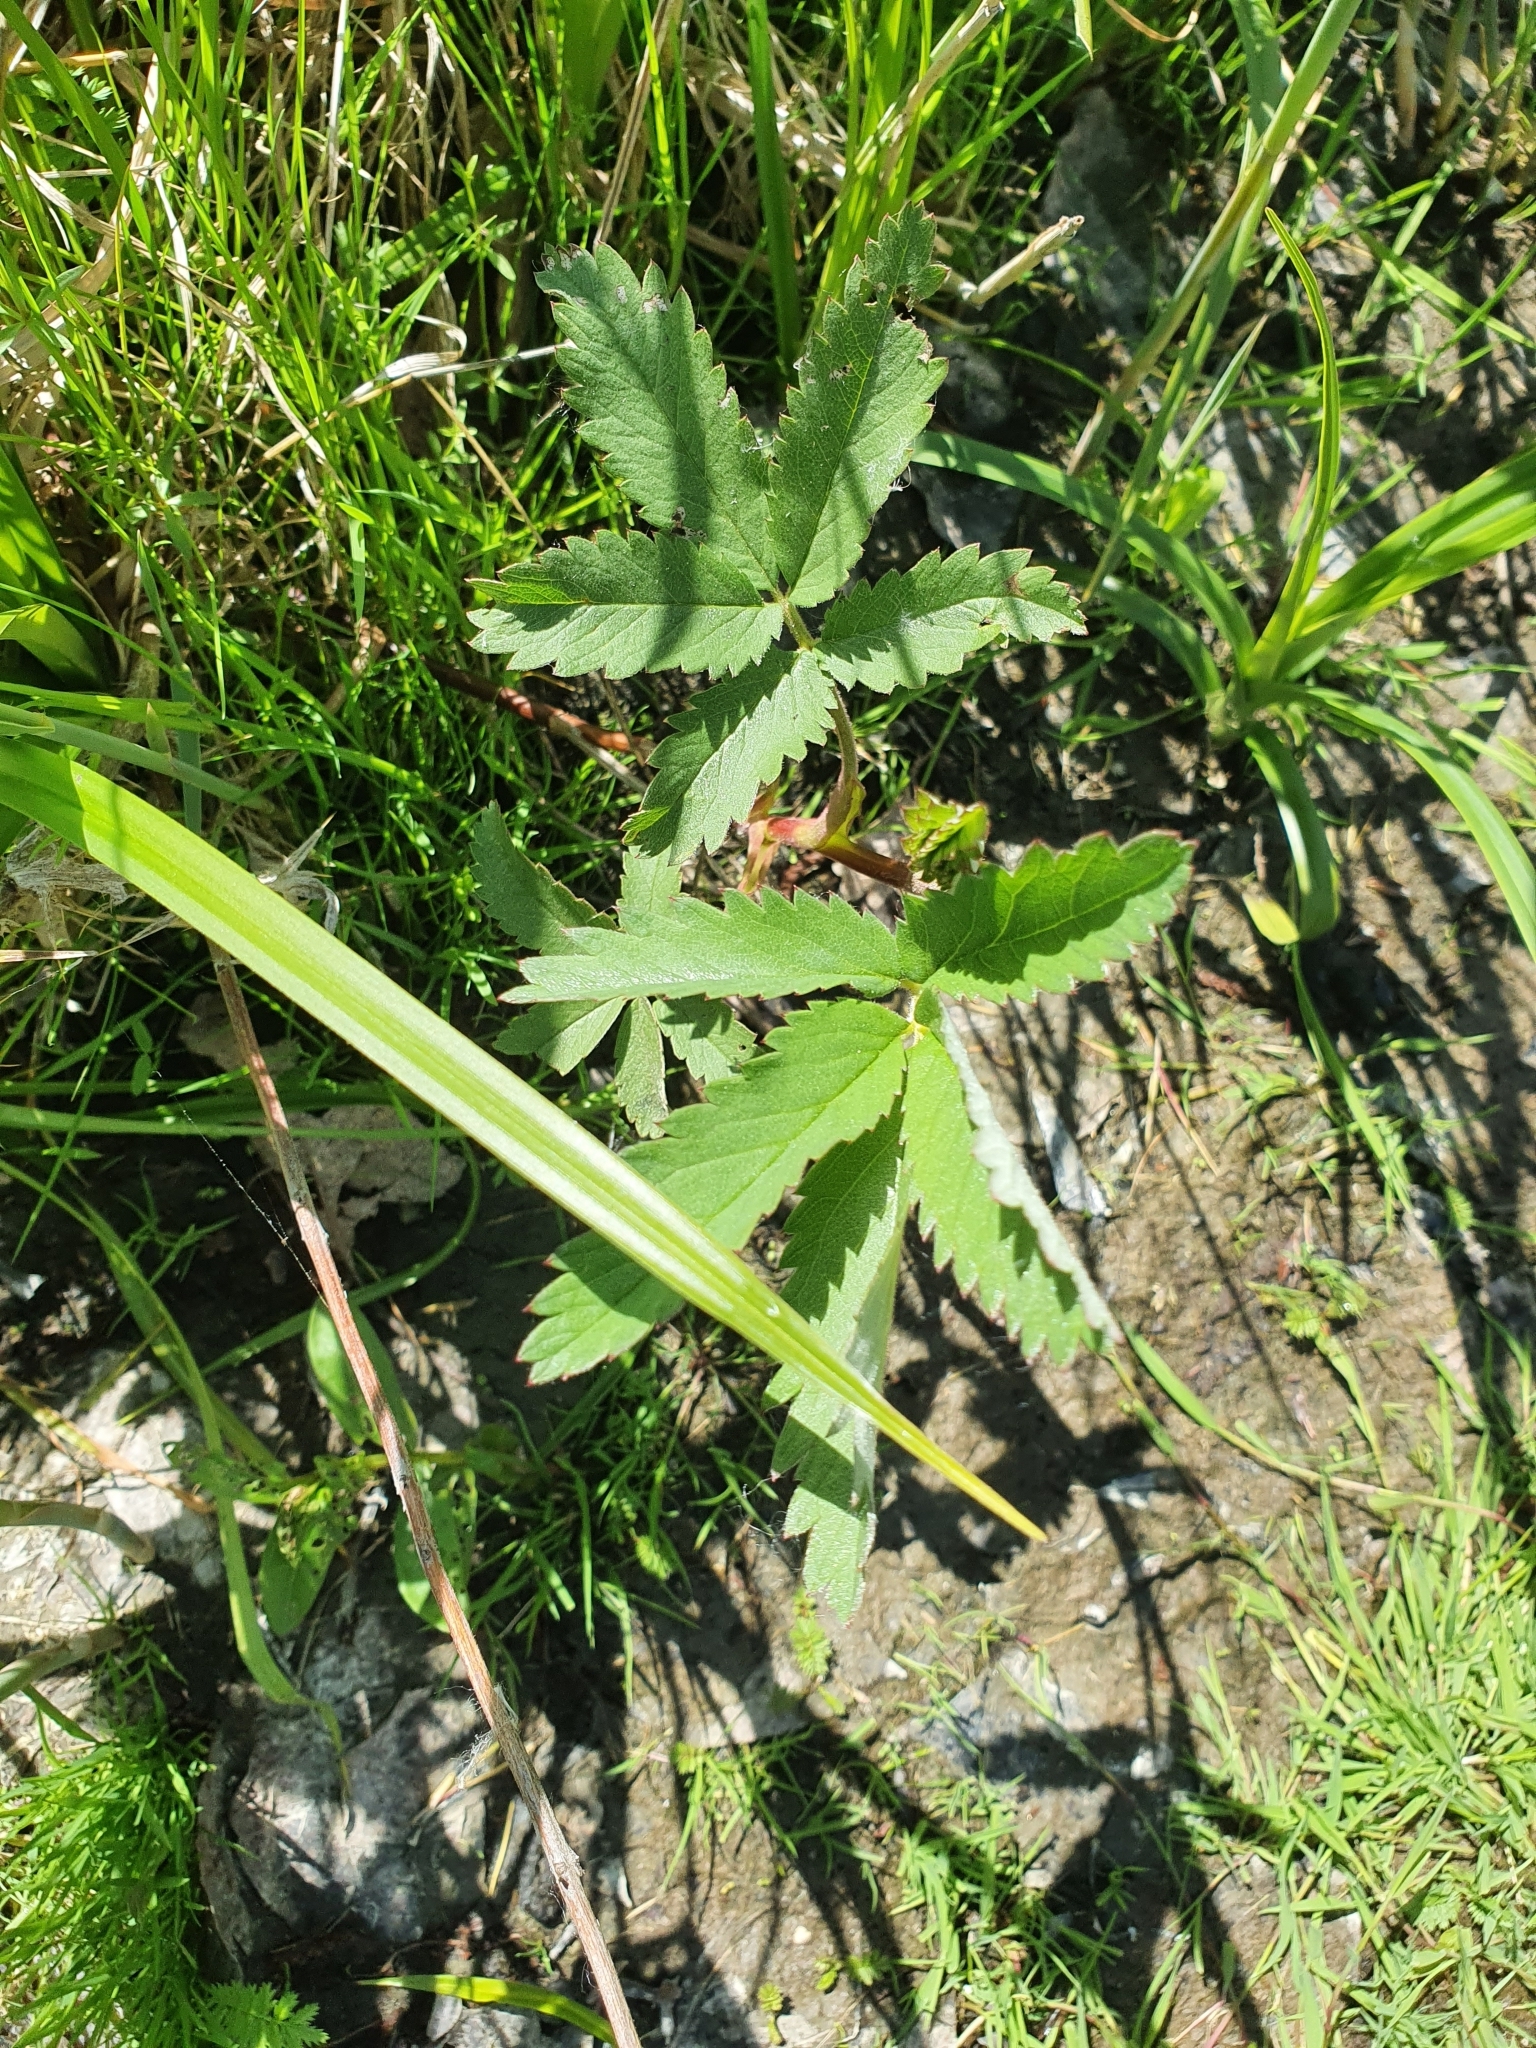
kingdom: Plantae
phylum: Tracheophyta
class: Magnoliopsida
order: Rosales
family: Rosaceae
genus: Comarum
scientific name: Comarum palustre
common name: Marsh cinquefoil
